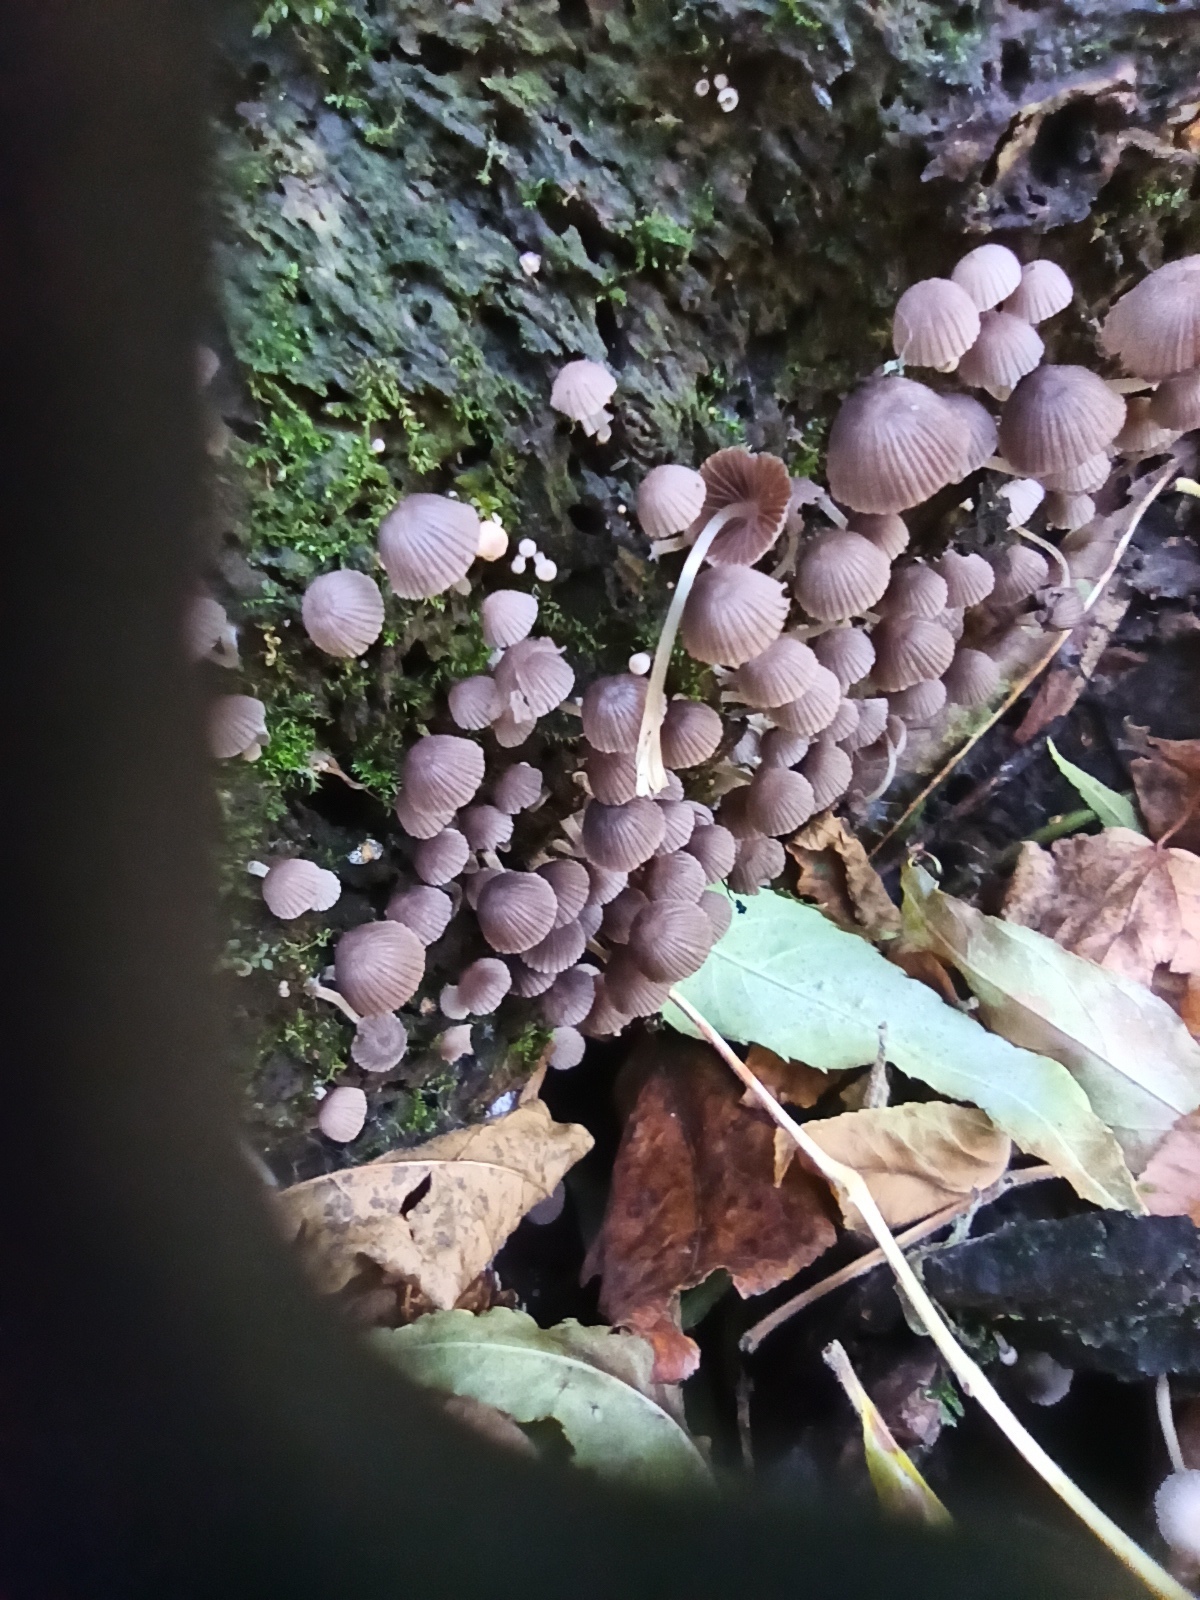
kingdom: Fungi
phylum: Basidiomycota
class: Agaricomycetes
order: Agaricales
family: Psathyrellaceae
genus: Coprinellus
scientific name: Coprinellus disseminatus
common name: Fairies' bonnets
